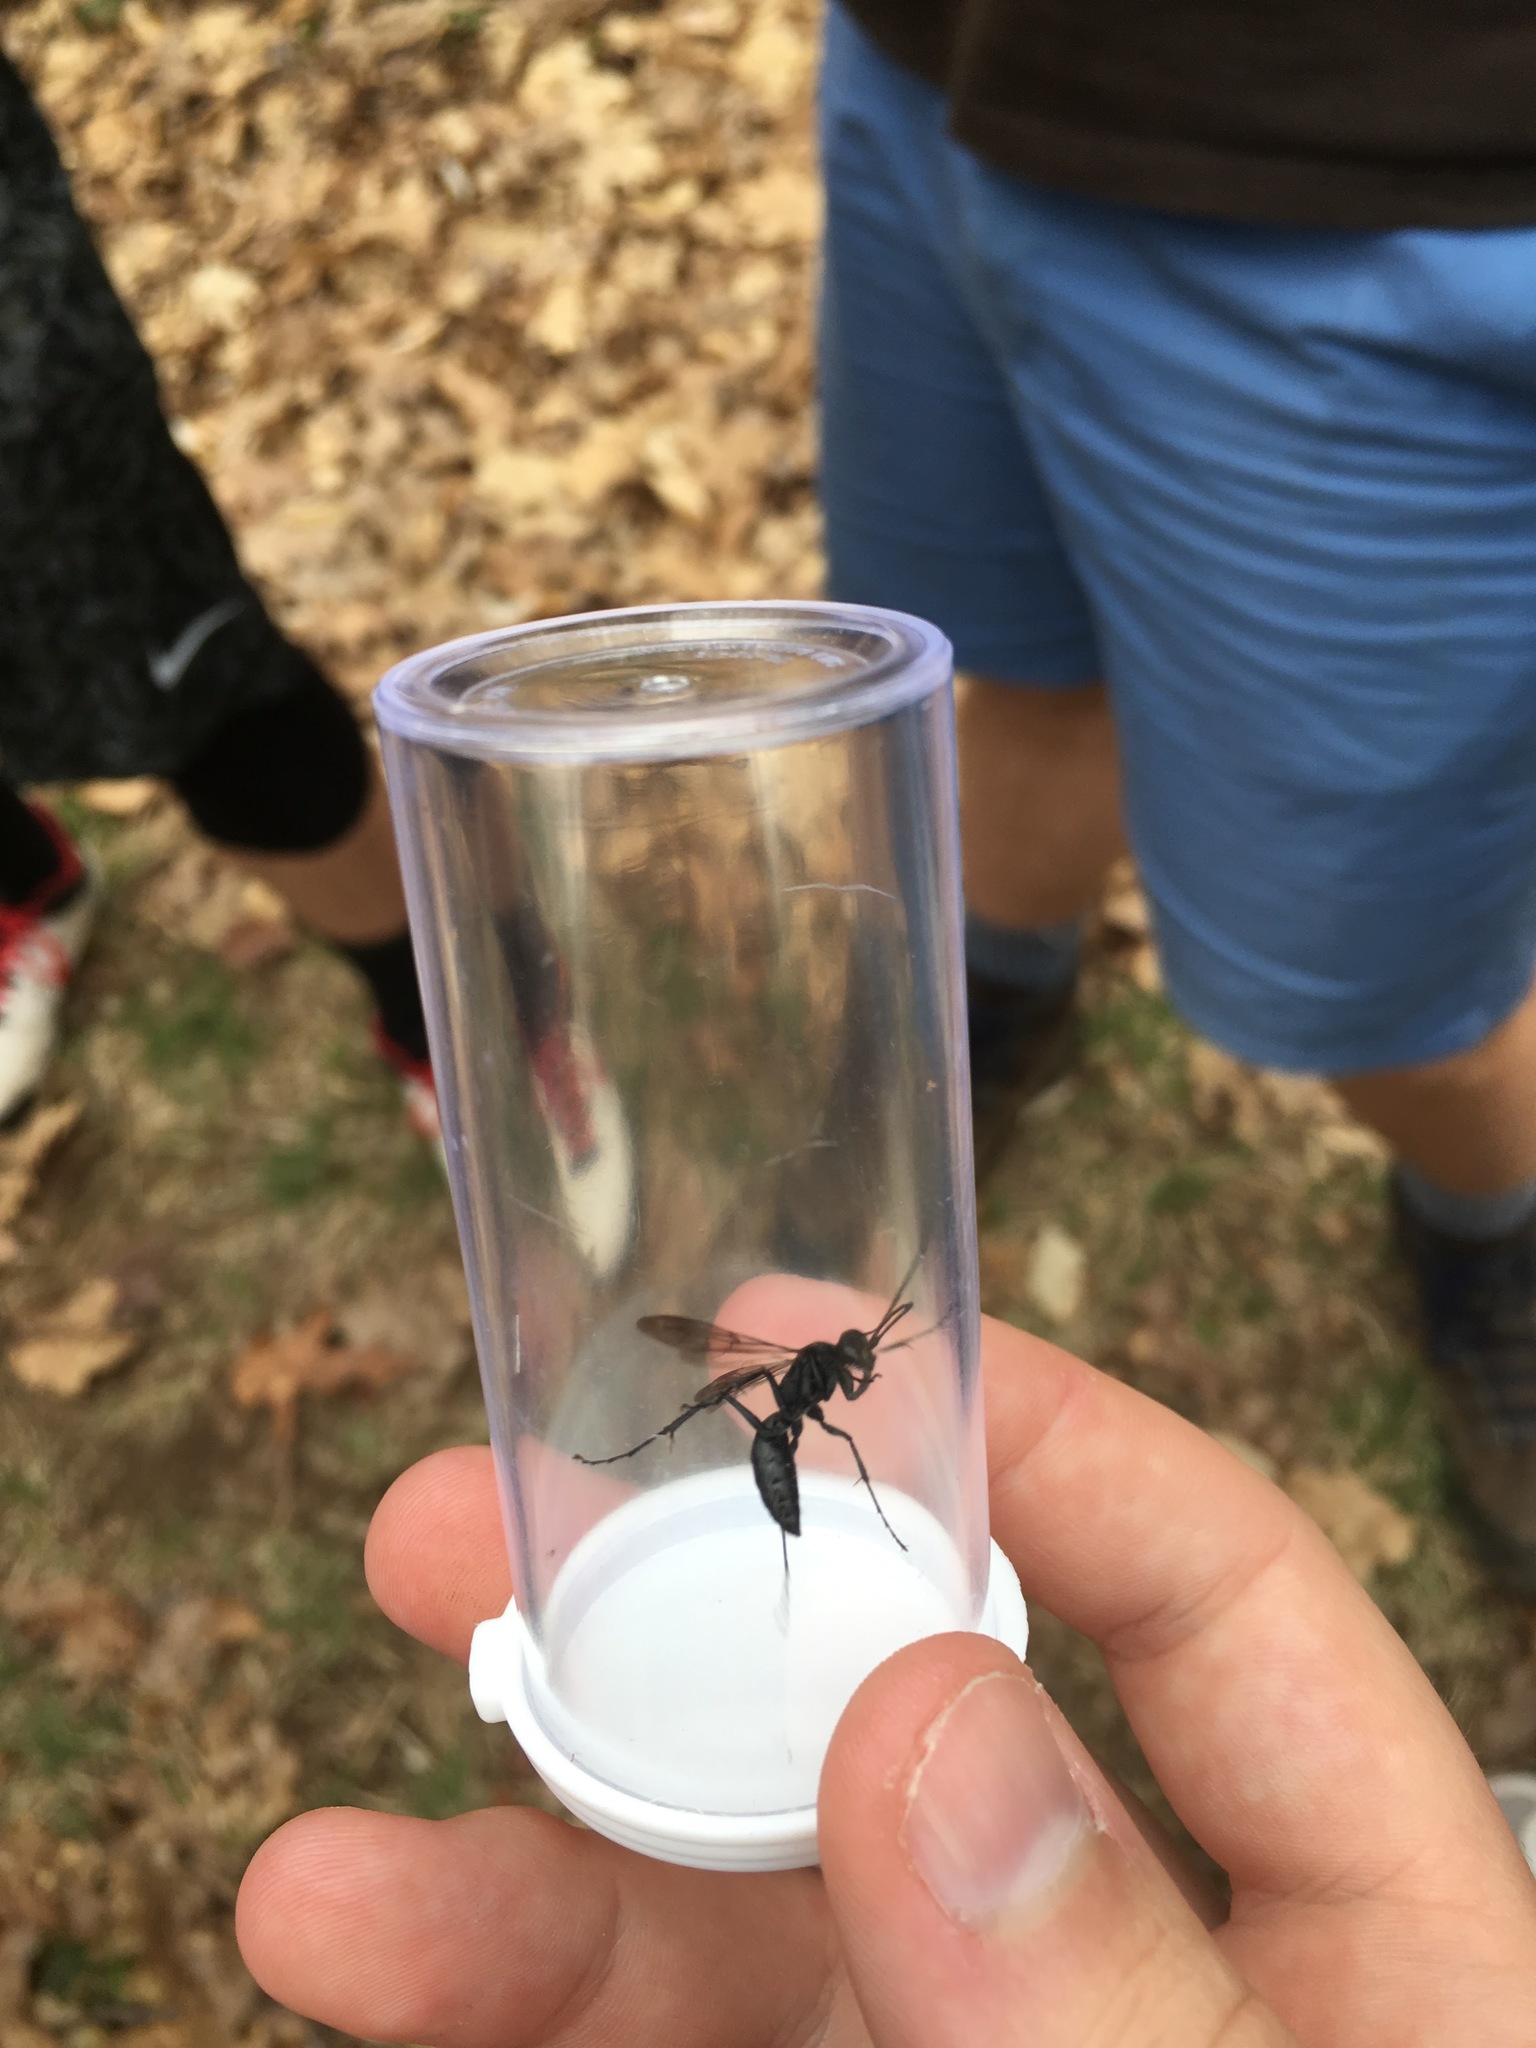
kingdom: Animalia
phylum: Arthropoda
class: Insecta
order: Hymenoptera
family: Pompilidae
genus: Priocnemis
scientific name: Priocnemis minorata
